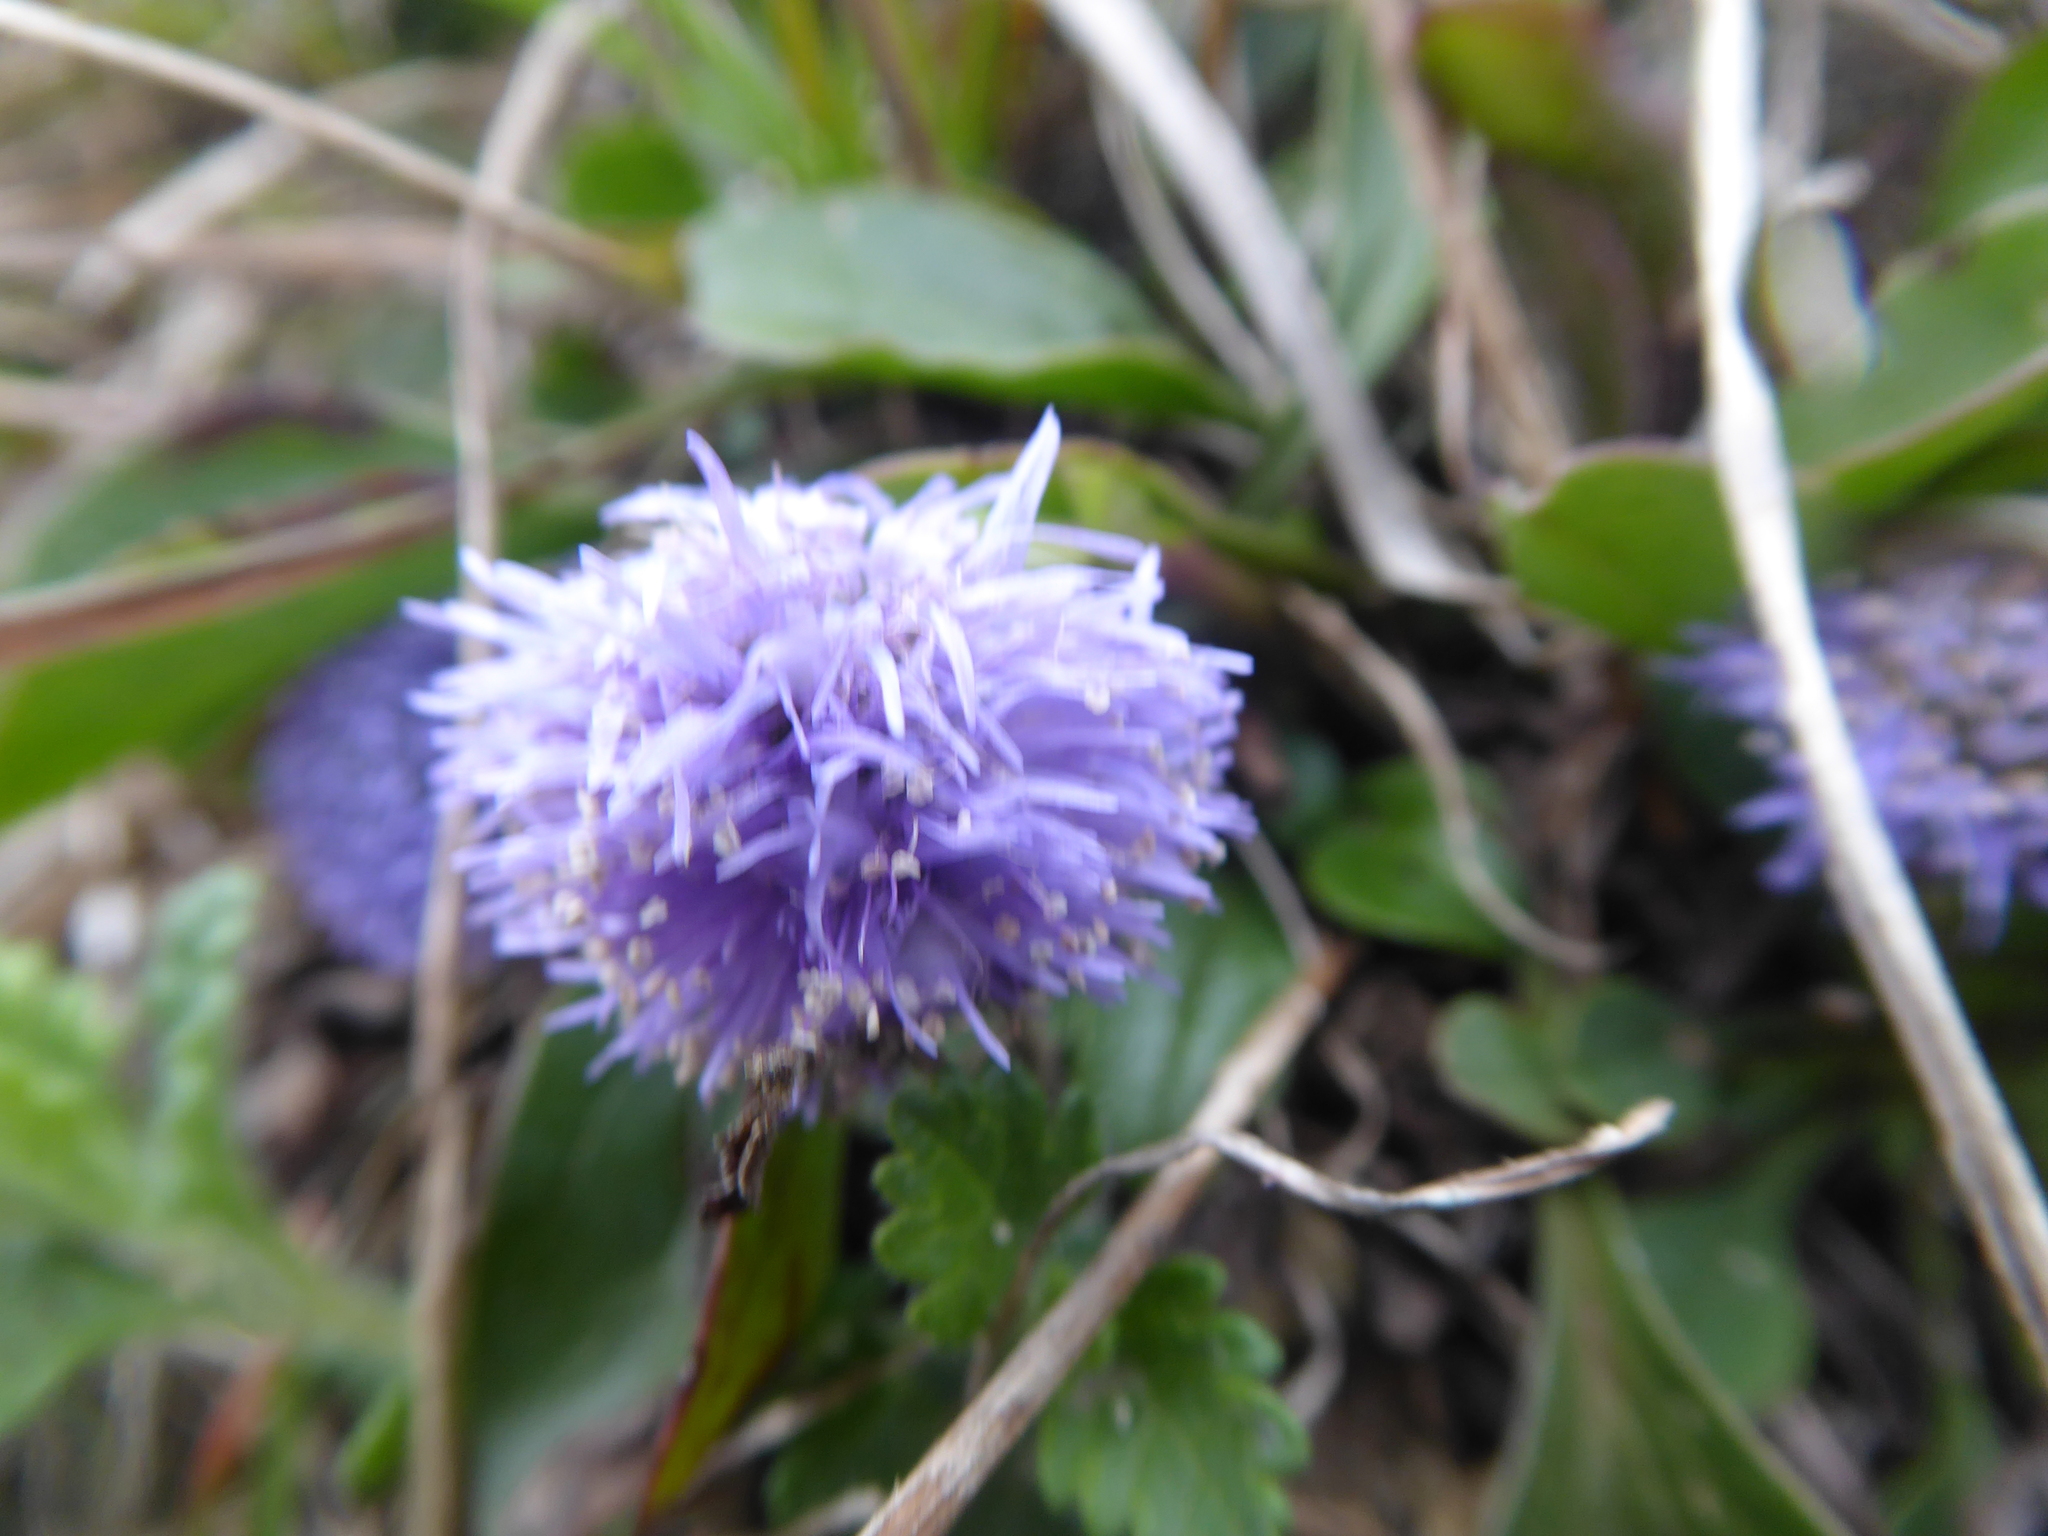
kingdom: Plantae
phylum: Tracheophyta
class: Magnoliopsida
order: Lamiales
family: Plantaginaceae
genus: Globularia
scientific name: Globularia bisnagarica
